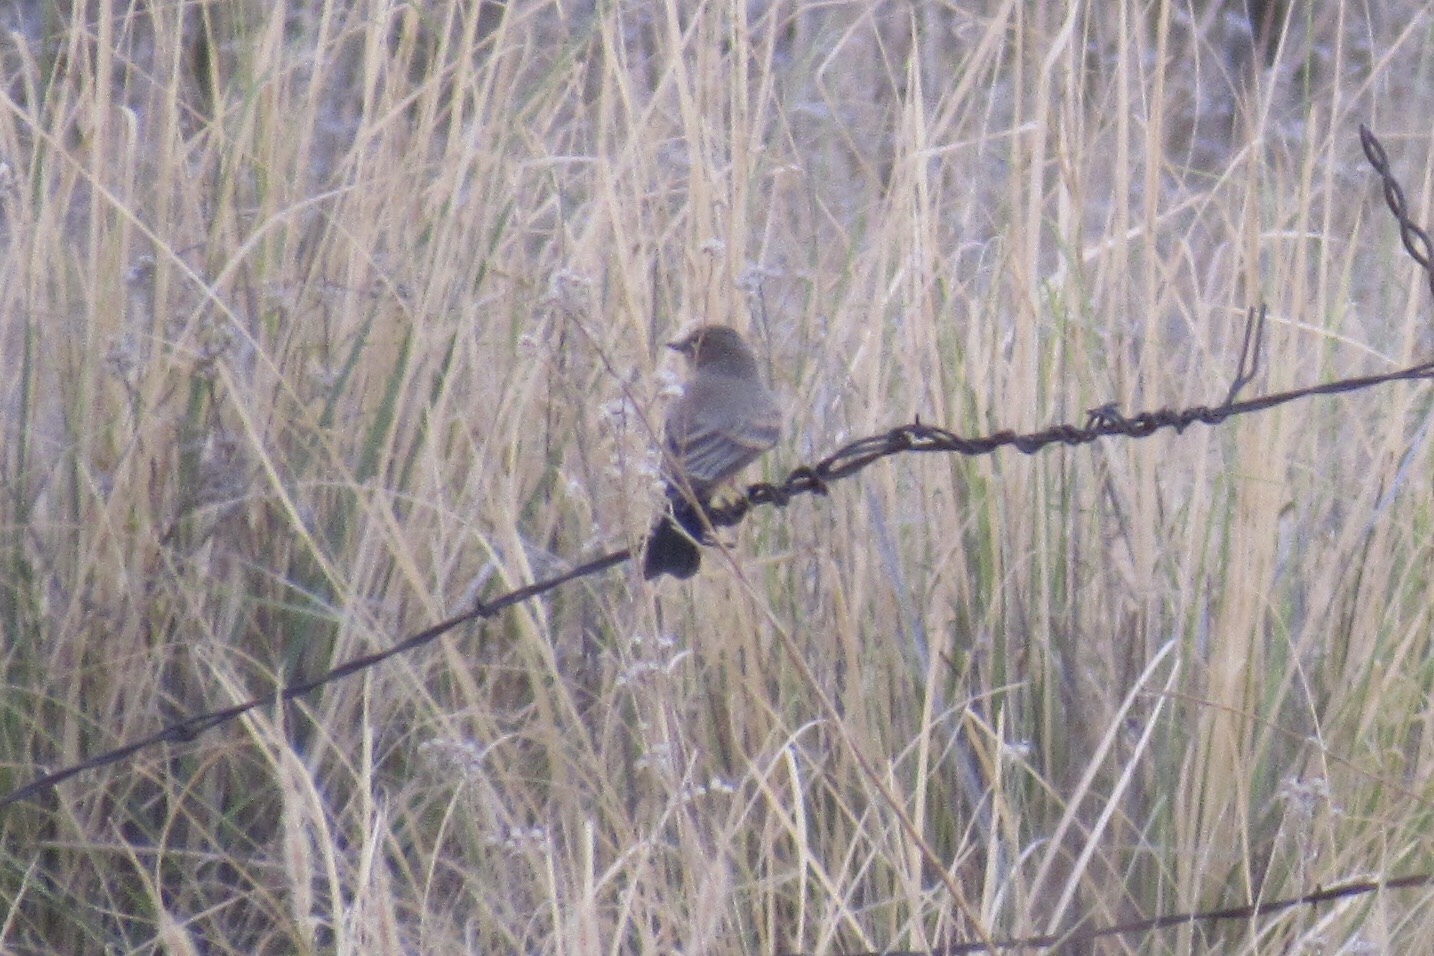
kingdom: Animalia
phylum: Chordata
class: Aves
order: Passeriformes
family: Tyrannidae
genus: Sayornis
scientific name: Sayornis saya
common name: Say's phoebe
